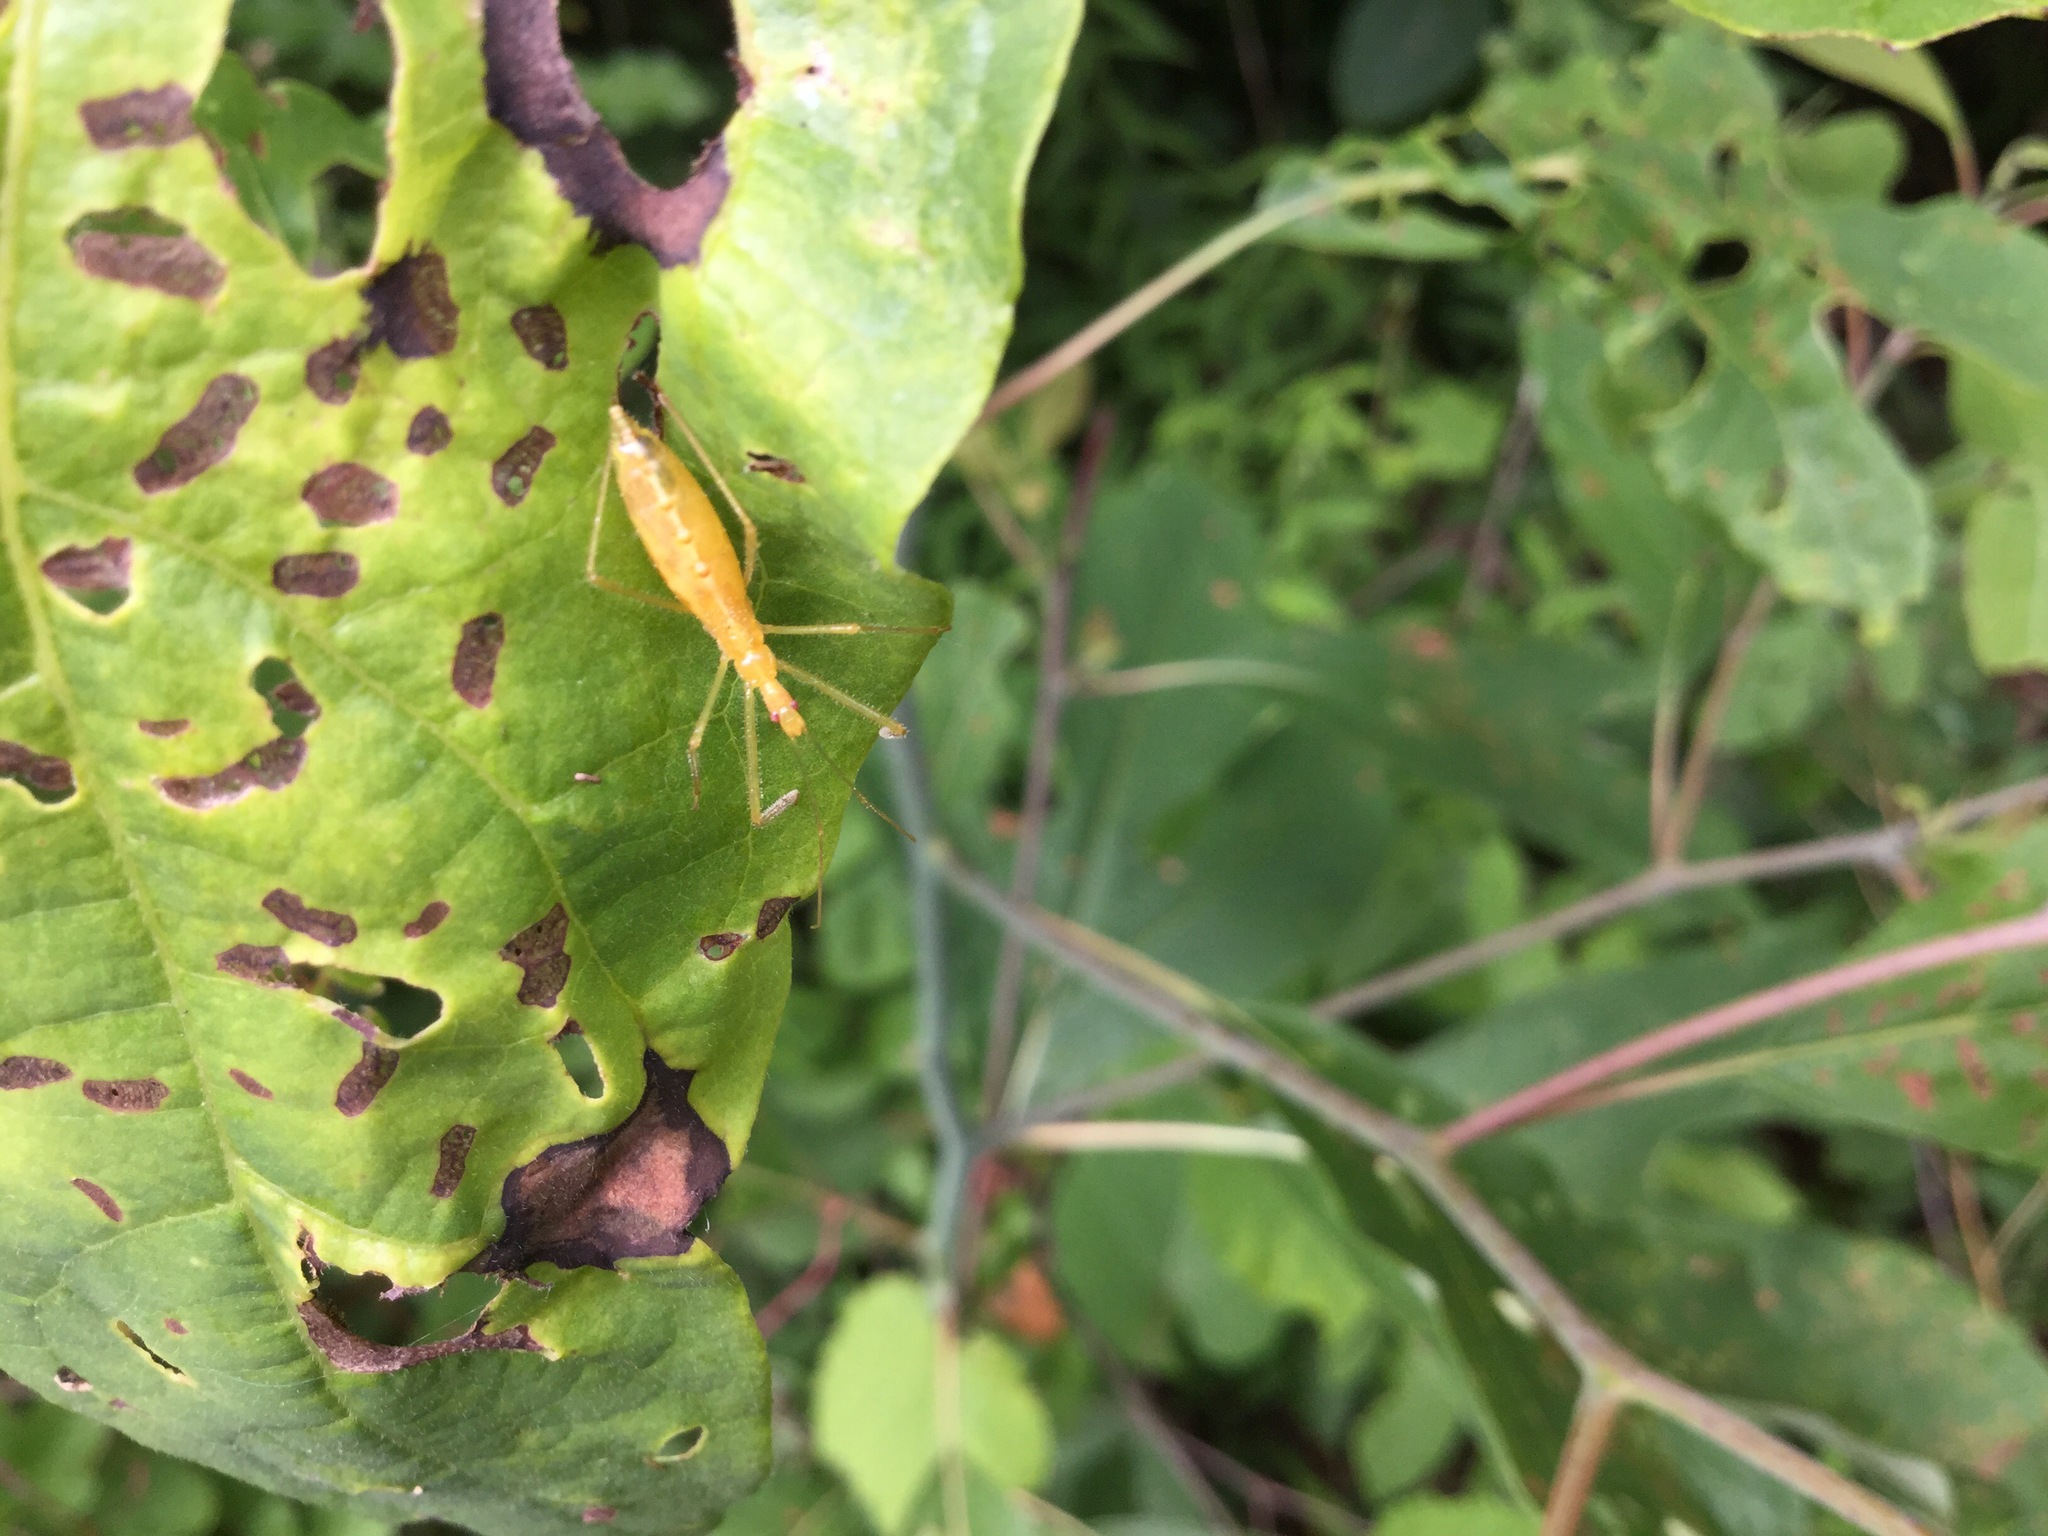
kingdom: Animalia
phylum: Arthropoda
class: Insecta
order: Hemiptera
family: Reduviidae
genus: Zelus
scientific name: Zelus luridus
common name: Pale green assassin bug
